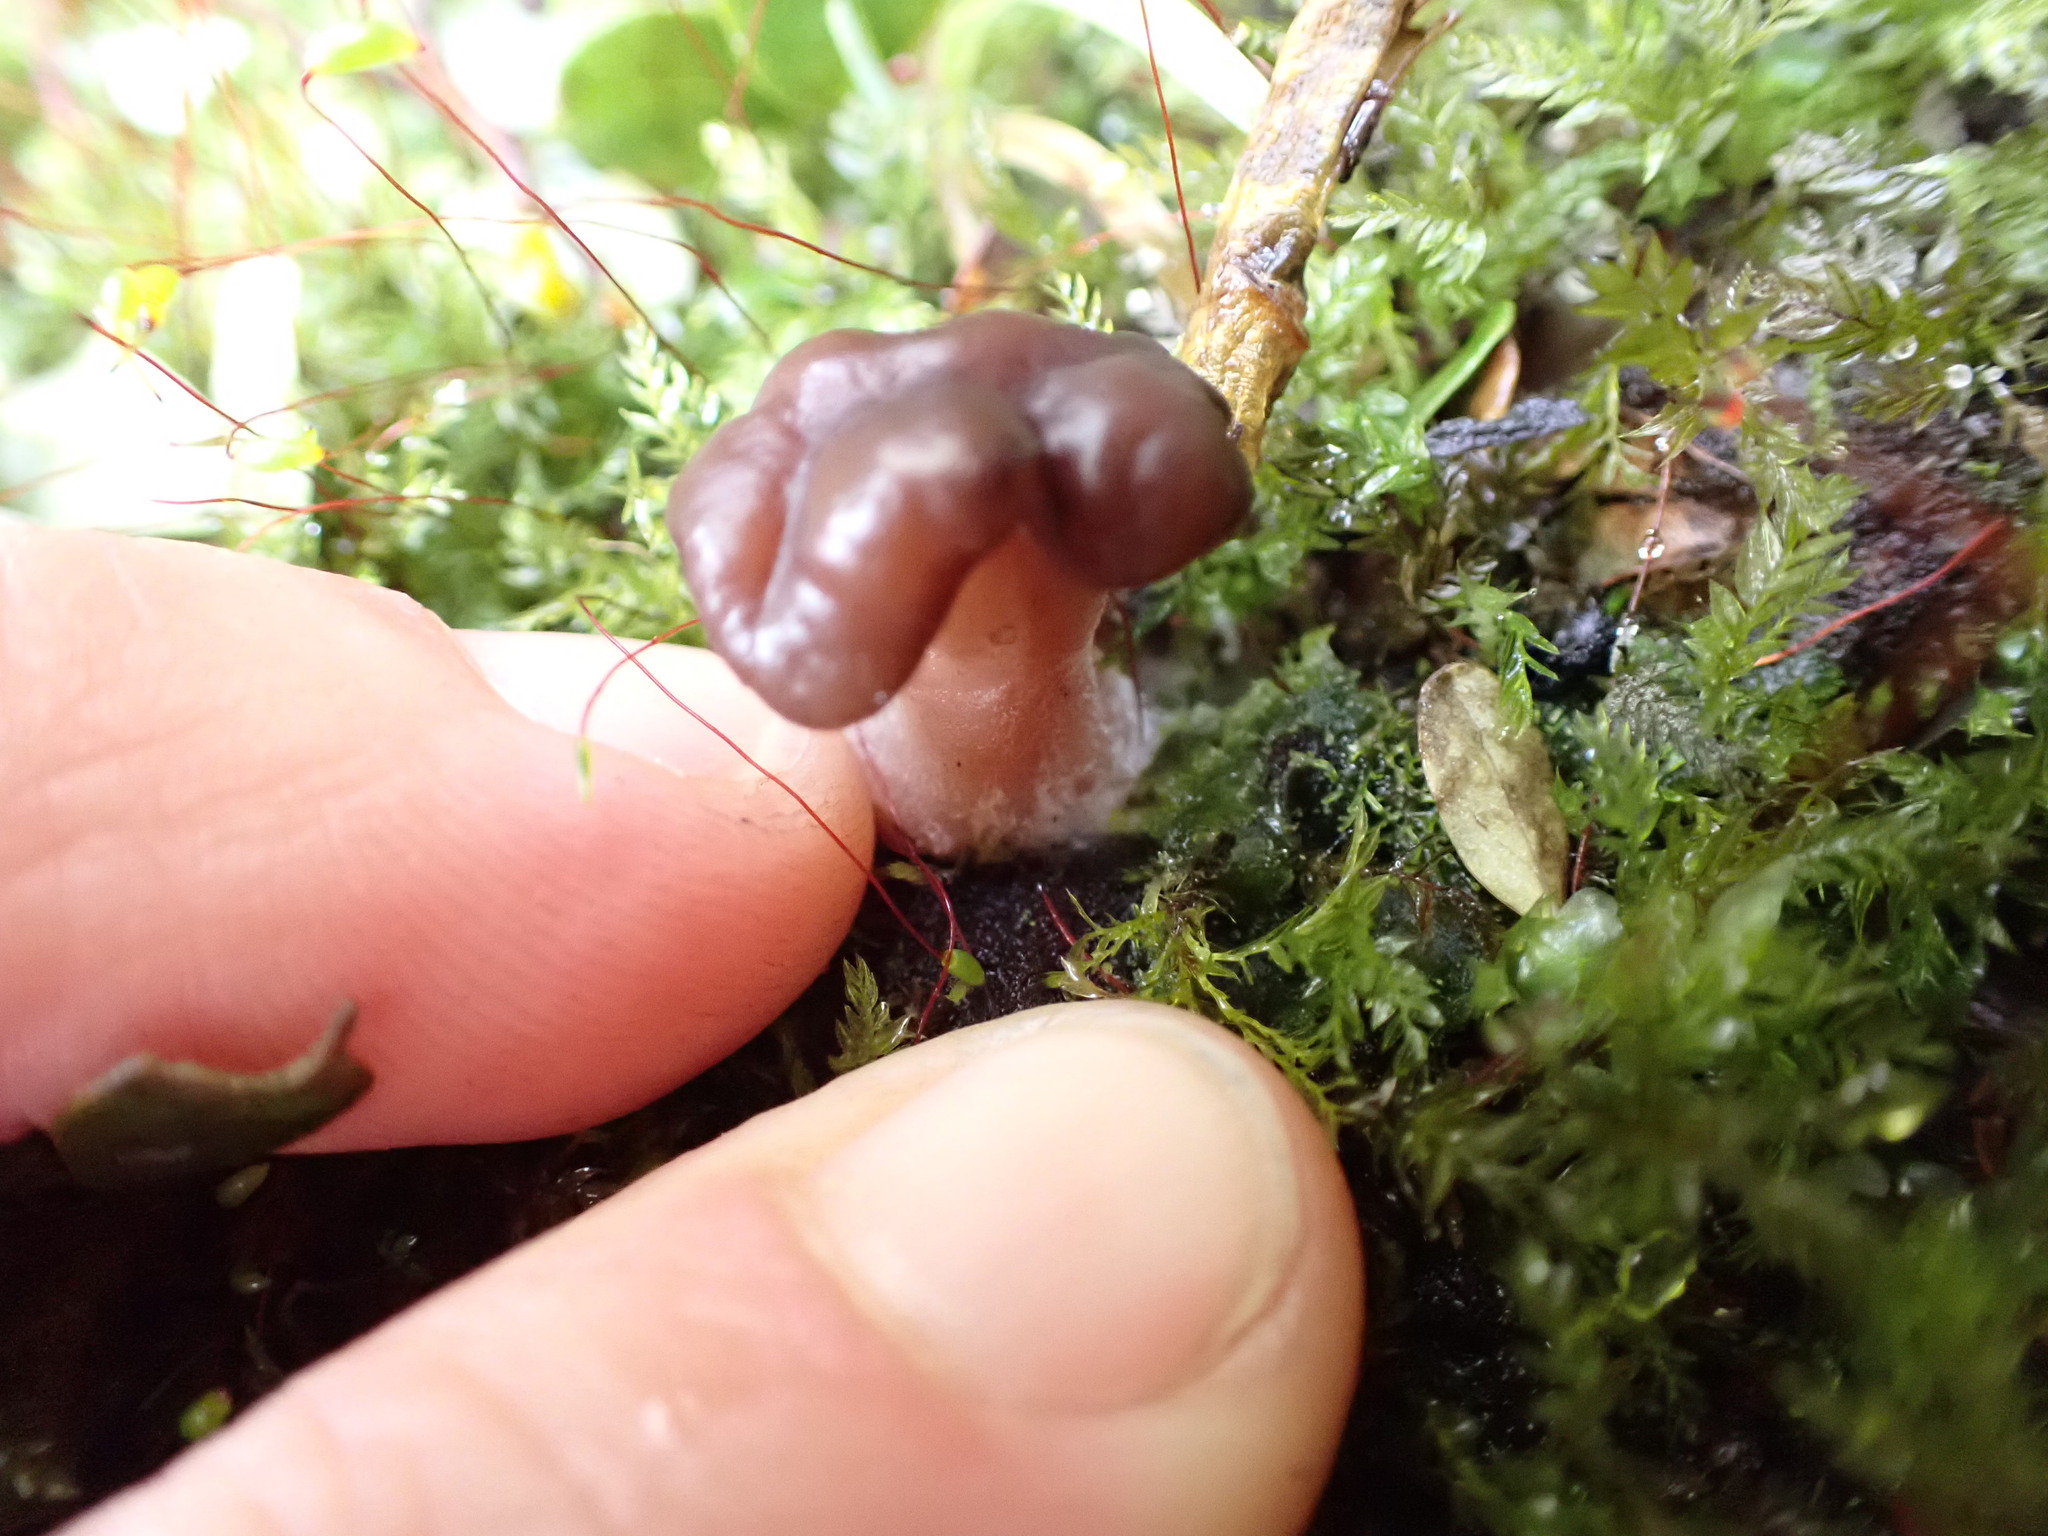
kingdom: Fungi
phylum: Ascomycota
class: Pezizomycetes
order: Pezizales
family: Discinaceae
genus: Gyromitra
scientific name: Gyromitra tasmanica
